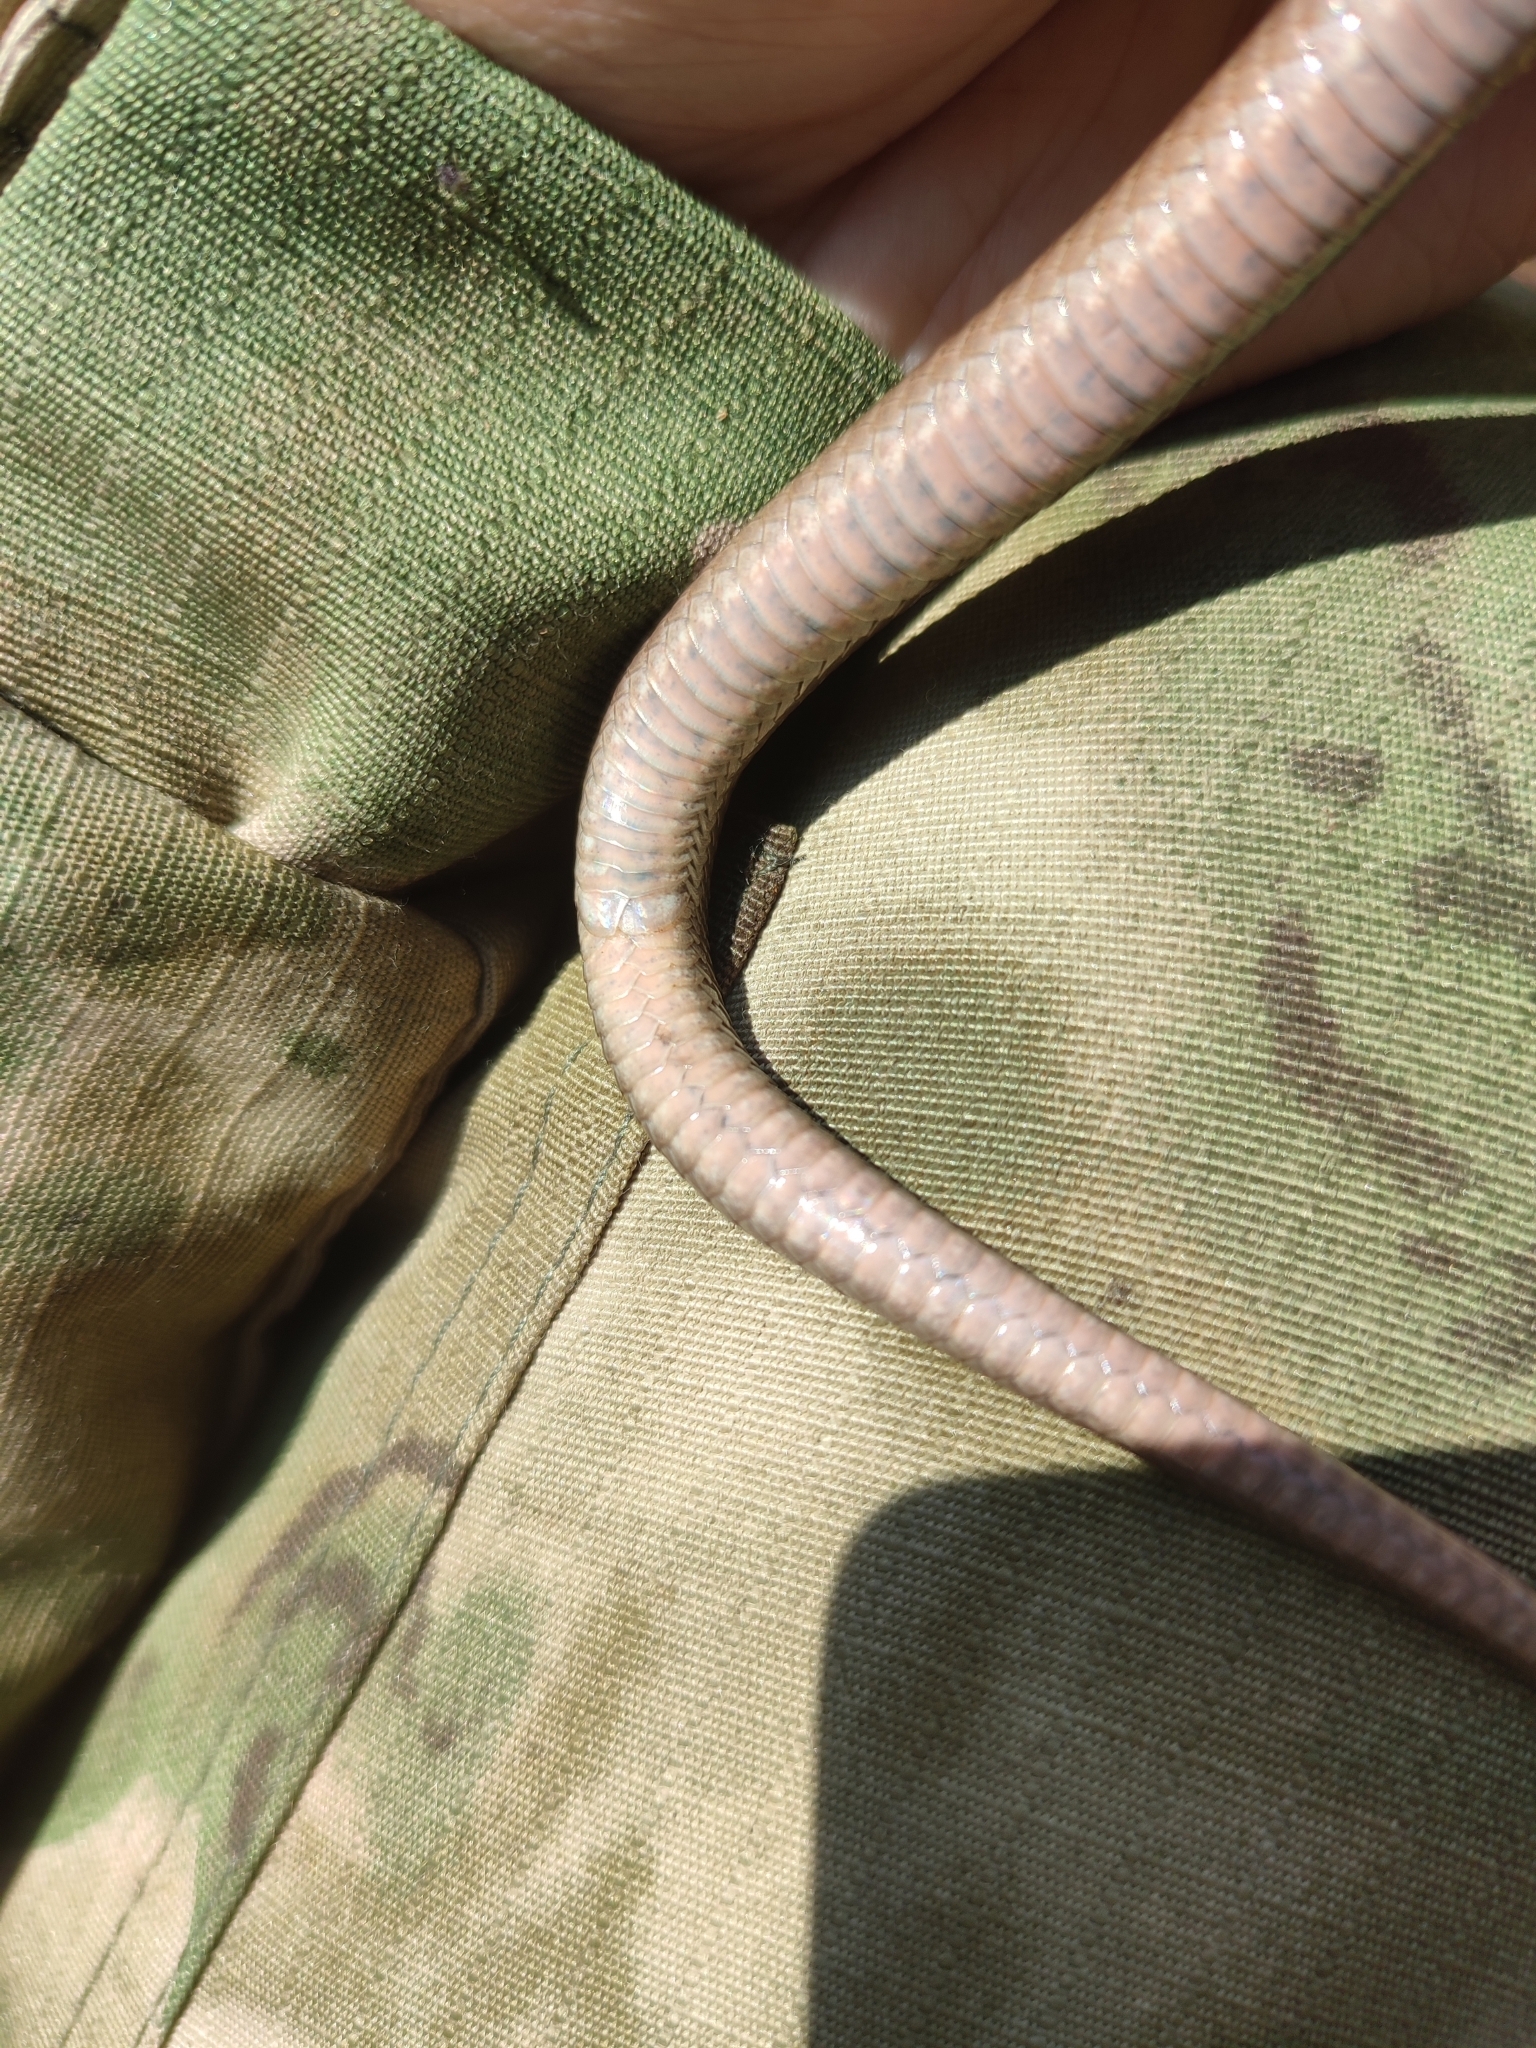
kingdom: Animalia
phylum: Chordata
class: Squamata
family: Colubridae
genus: Coronella
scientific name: Coronella austriaca
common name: Smooth snake
